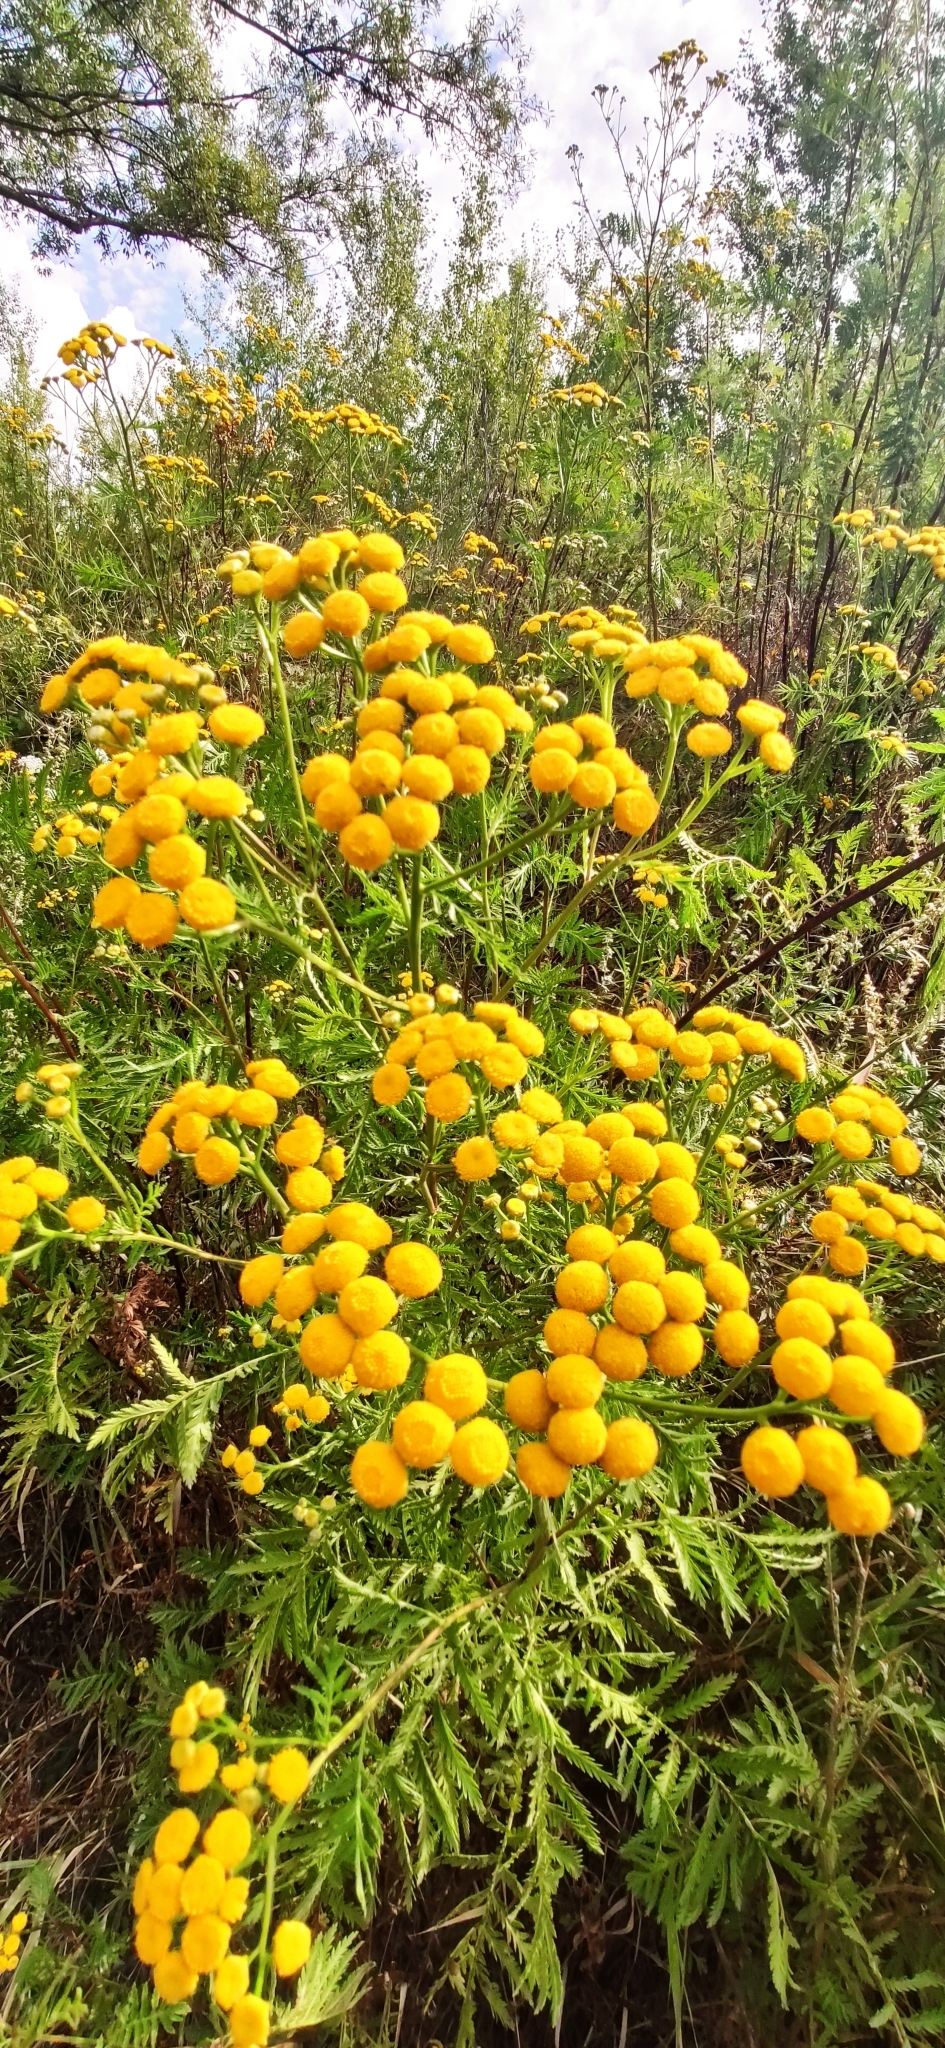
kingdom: Plantae
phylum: Tracheophyta
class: Magnoliopsida
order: Asterales
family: Asteraceae
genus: Tanacetum
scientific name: Tanacetum vulgare
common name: Common tansy
